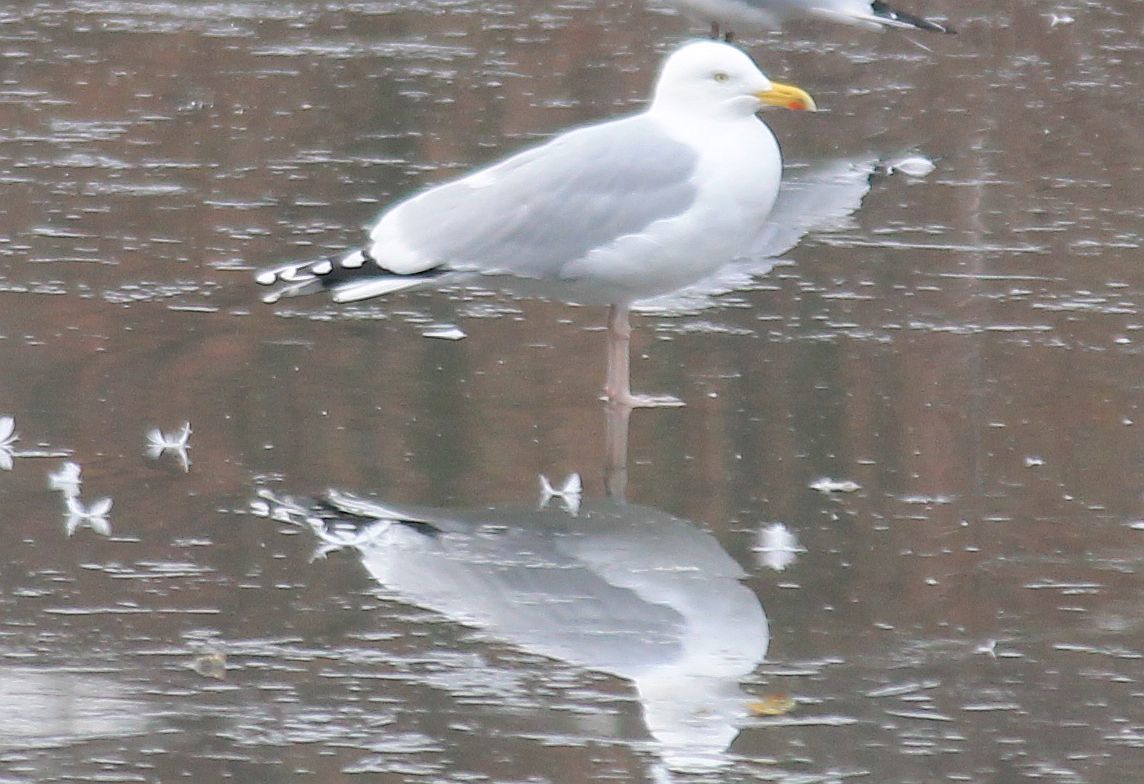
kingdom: Animalia
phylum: Chordata
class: Aves
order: Charadriiformes
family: Laridae
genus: Larus
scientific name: Larus argentatus
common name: Herring gull
